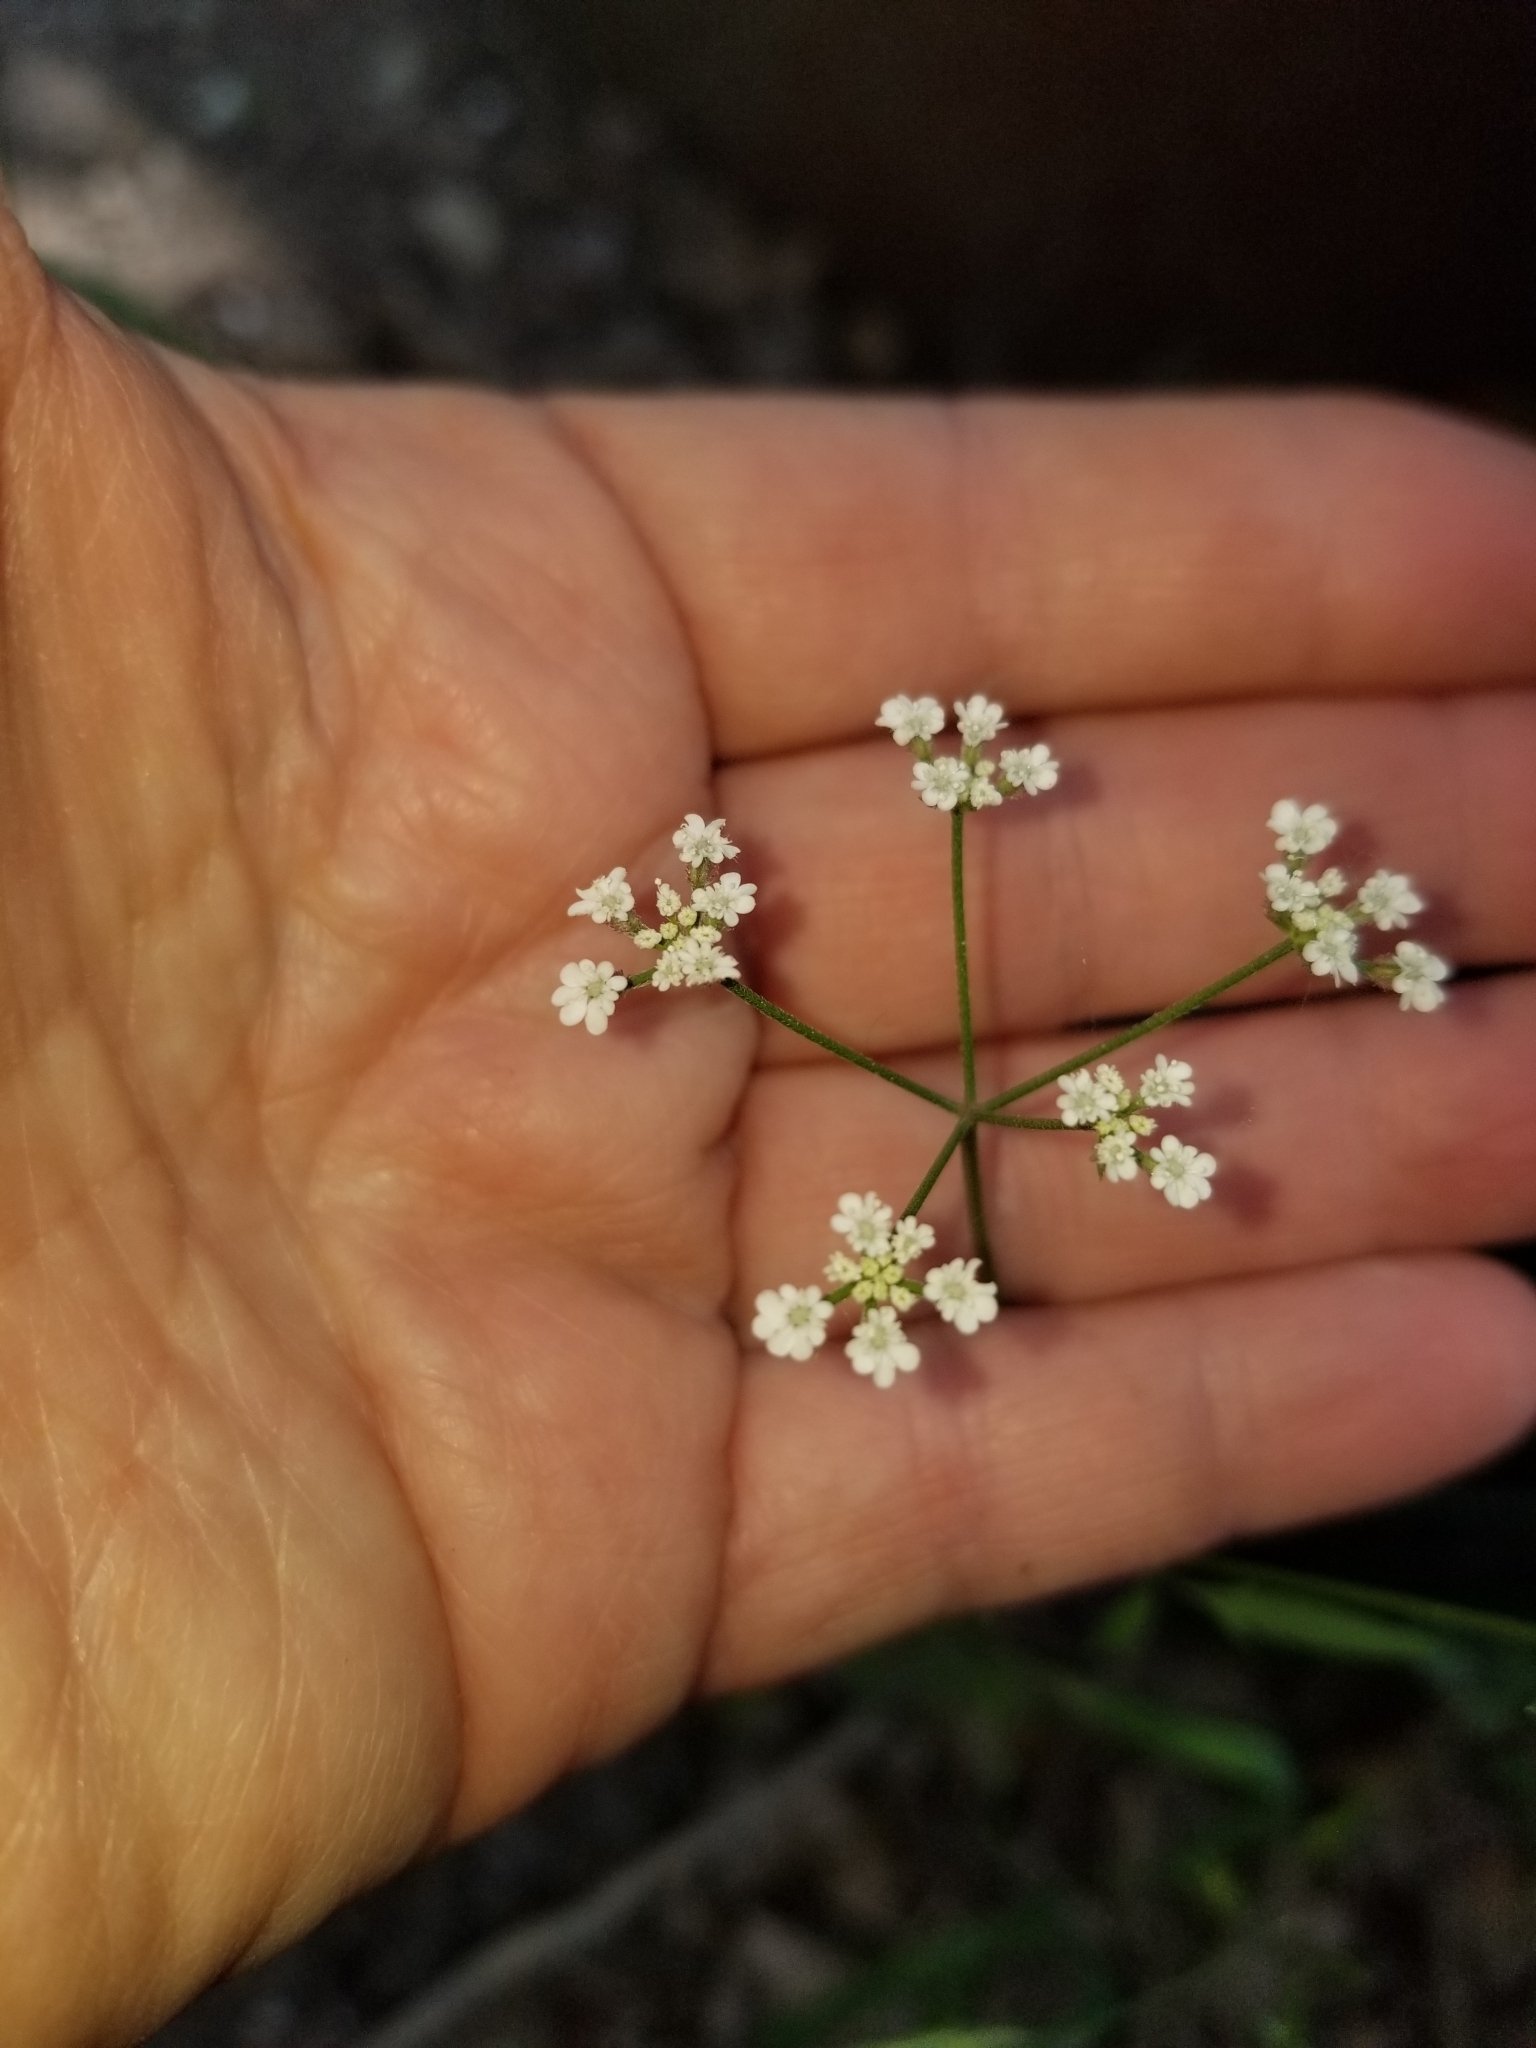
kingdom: Plantae
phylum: Tracheophyta
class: Magnoliopsida
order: Apiales
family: Apiaceae
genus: Torilis
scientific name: Torilis arvensis
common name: Spreading hedge-parsley
